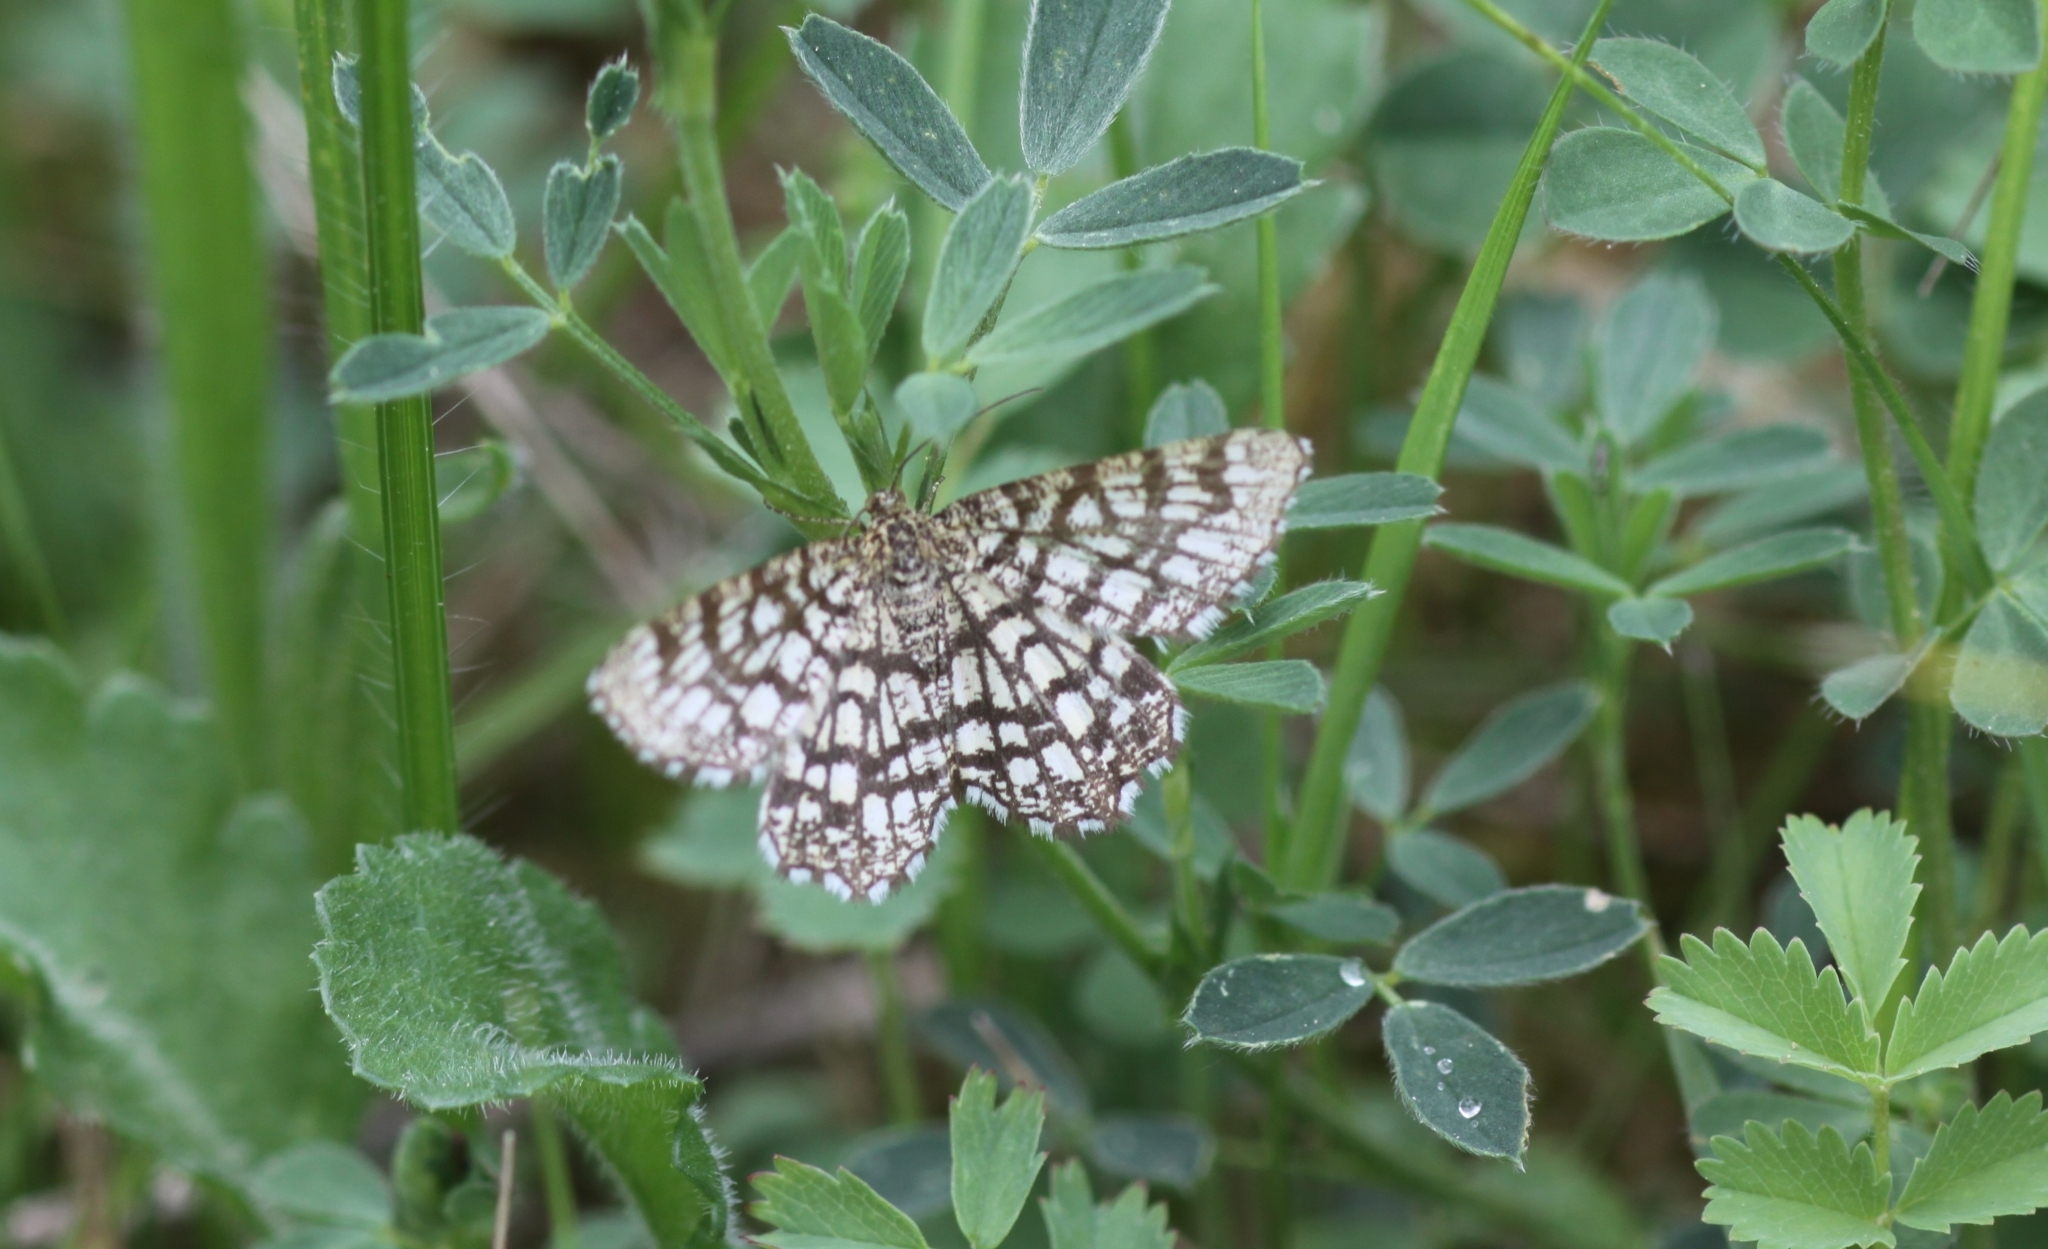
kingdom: Animalia
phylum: Arthropoda
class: Insecta
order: Lepidoptera
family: Geometridae
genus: Chiasmia
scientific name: Chiasmia clathrata
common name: Latticed heath
